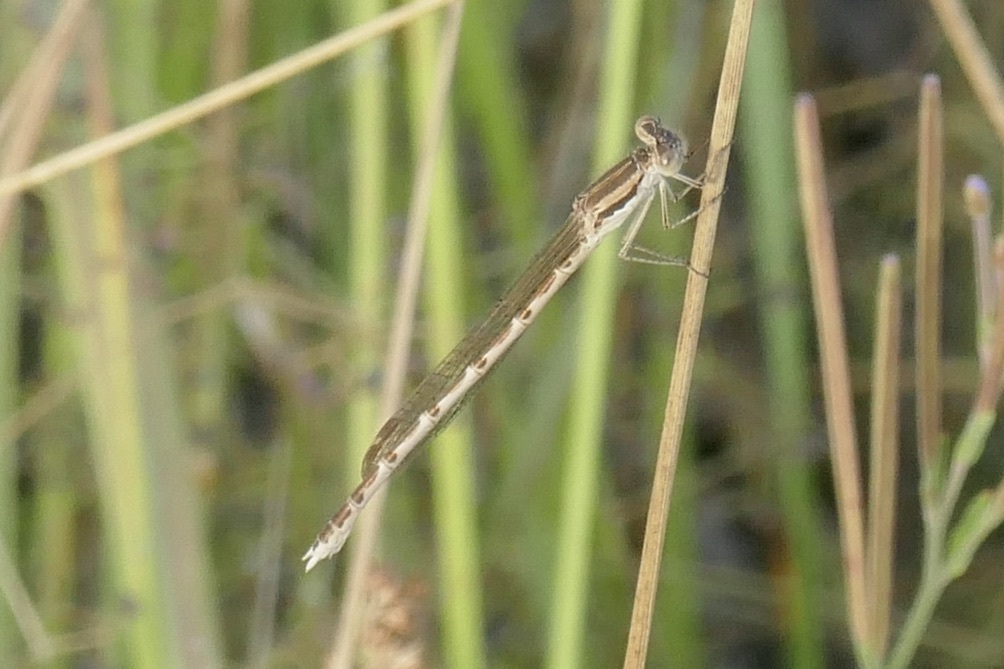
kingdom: Animalia
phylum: Arthropoda
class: Insecta
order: Odonata
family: Lestidae
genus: Sympecma
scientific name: Sympecma fusca
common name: Common winter damsel
